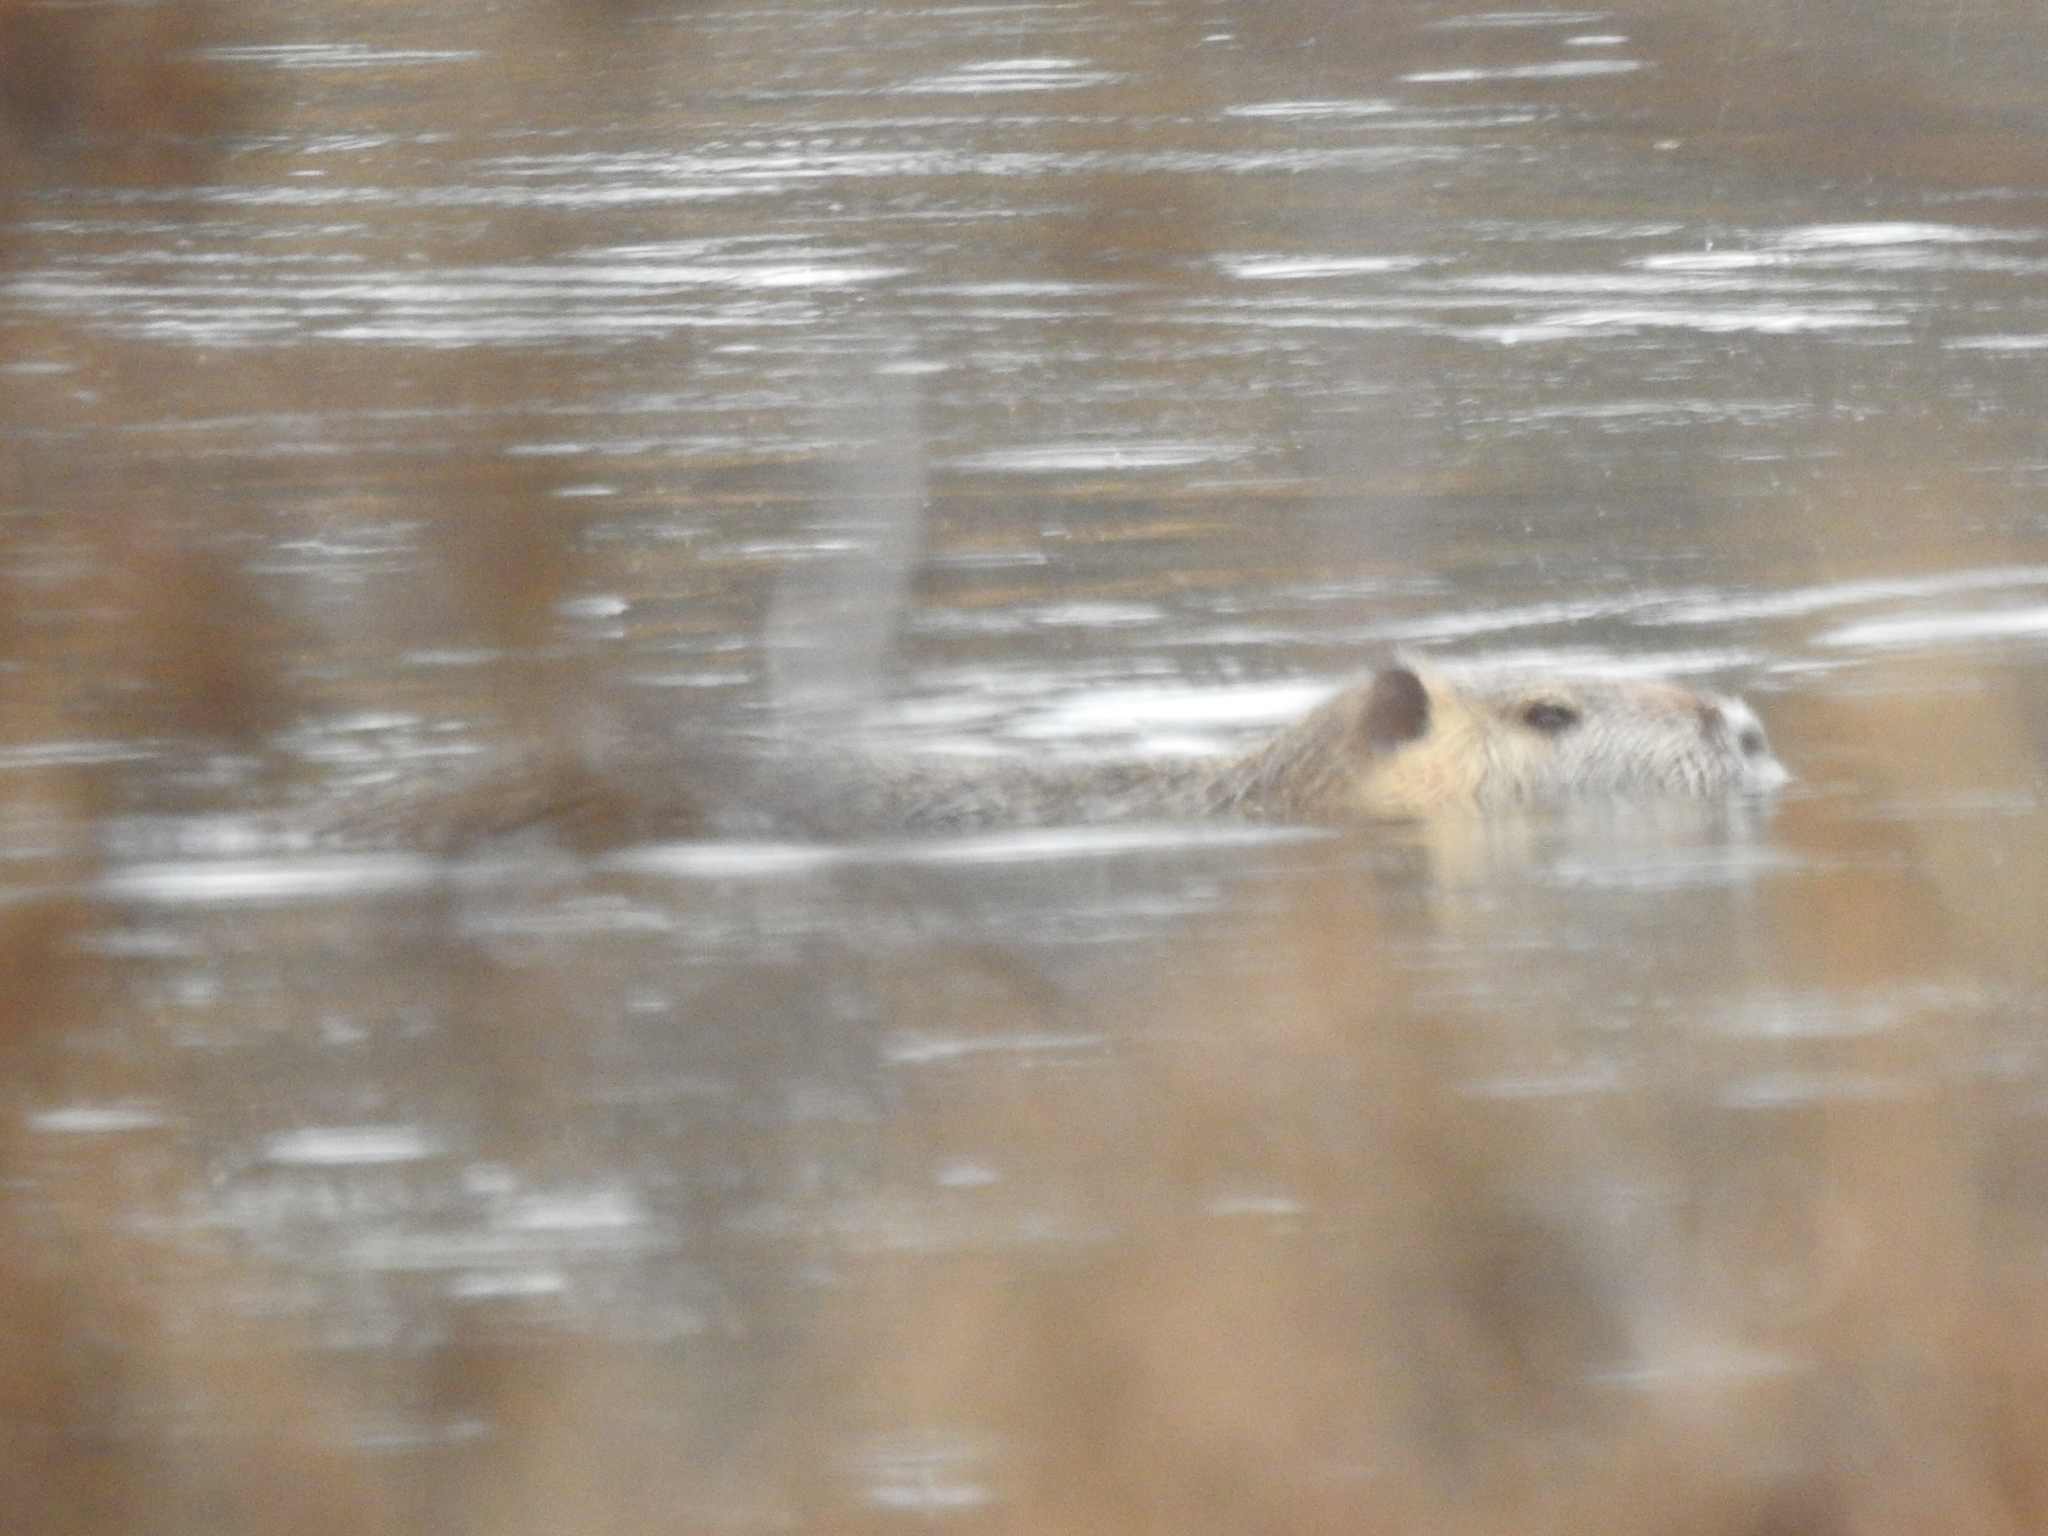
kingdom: Animalia
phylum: Chordata
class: Mammalia
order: Rodentia
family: Myocastoridae
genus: Myocastor
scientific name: Myocastor coypus
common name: Coypu
